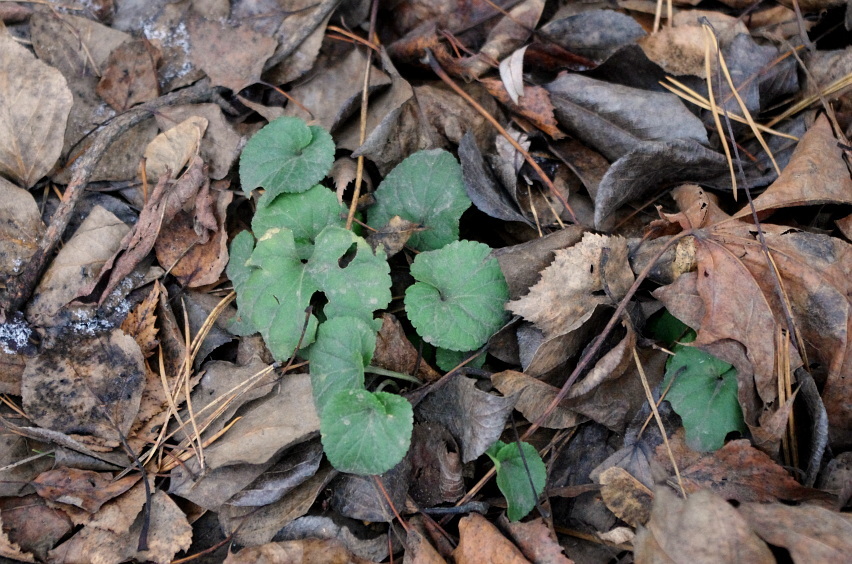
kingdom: Plantae
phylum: Tracheophyta
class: Magnoliopsida
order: Malpighiales
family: Violaceae
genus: Viola
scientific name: Viola odorata
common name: Sweet violet
